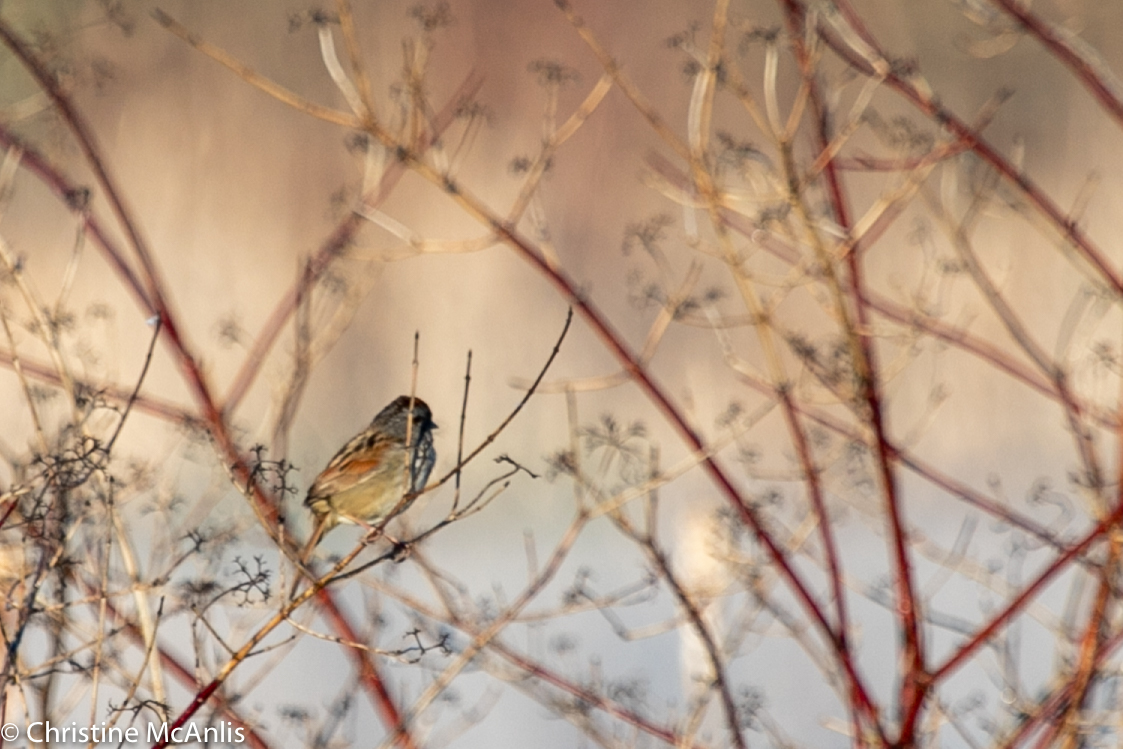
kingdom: Animalia
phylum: Chordata
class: Aves
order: Passeriformes
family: Passerellidae
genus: Melospiza
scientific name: Melospiza georgiana
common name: Swamp sparrow
